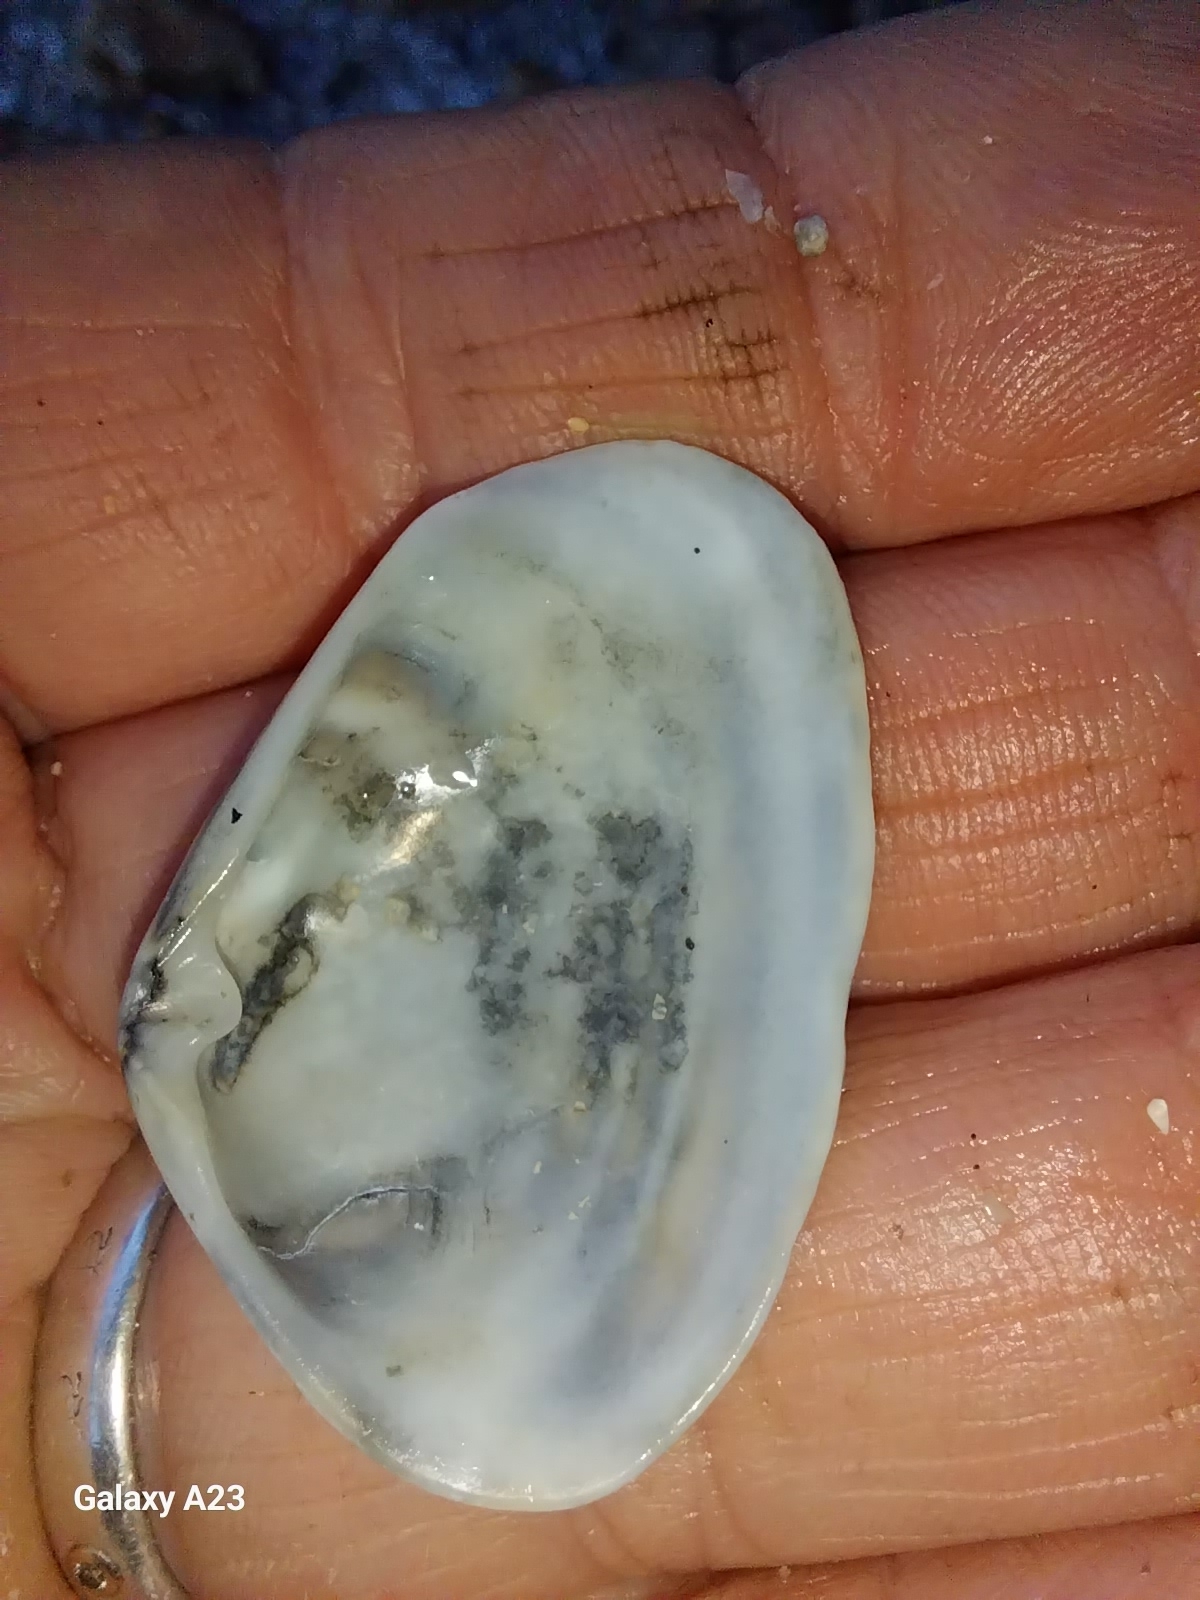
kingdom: Animalia
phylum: Mollusca
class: Bivalvia
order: Venerida
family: Mesodesmatidae
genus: Paphies
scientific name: Paphies subtriangulata
